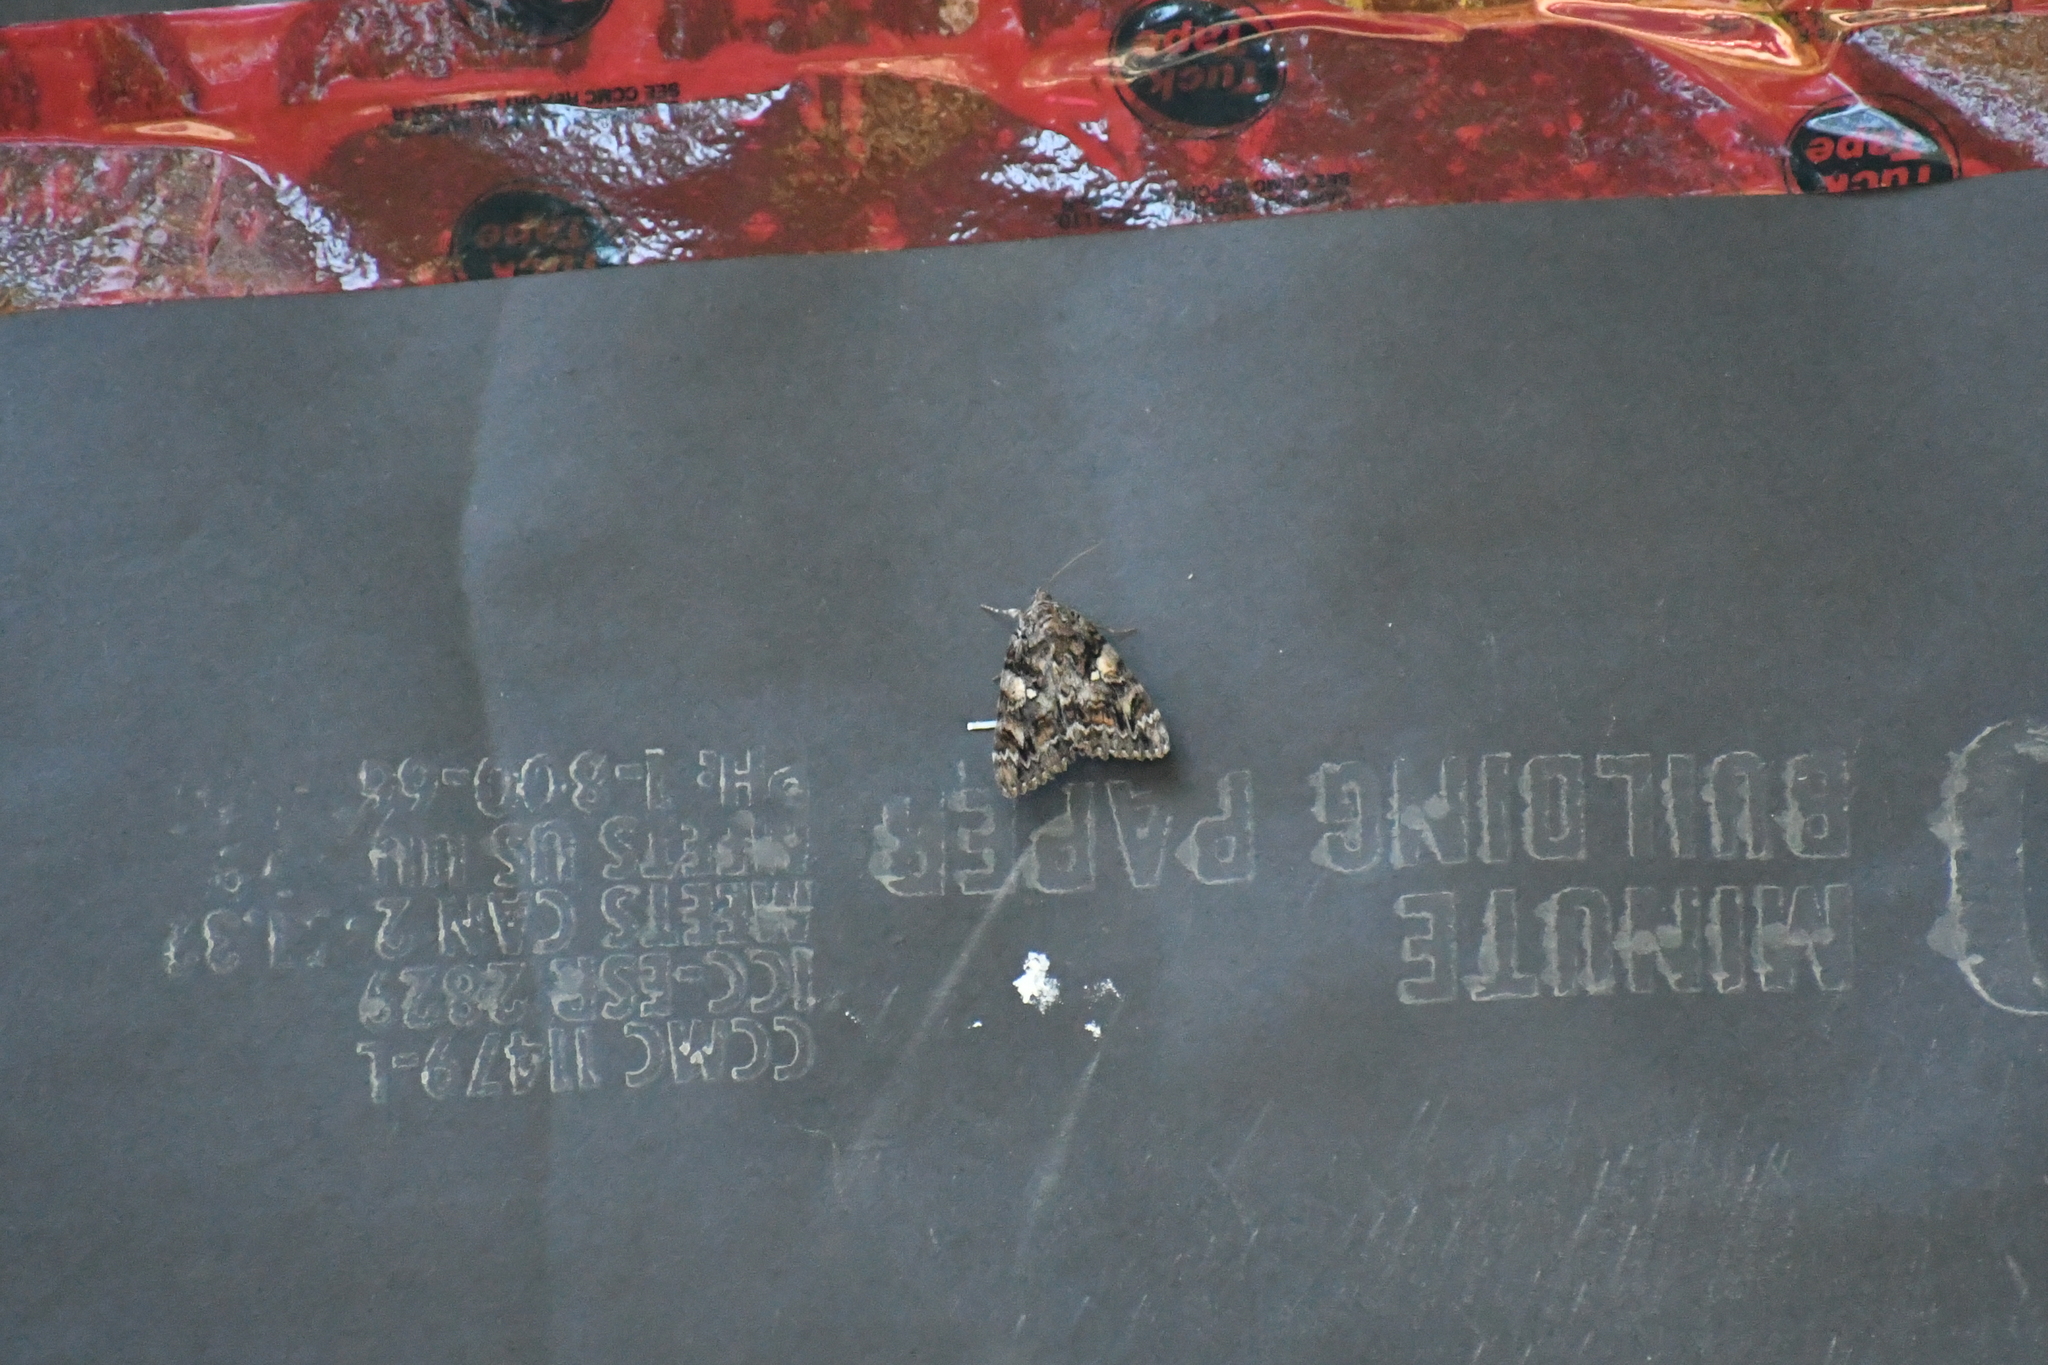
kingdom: Animalia
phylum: Arthropoda
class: Insecta
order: Lepidoptera
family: Erebidae
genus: Catocala
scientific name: Catocala aholibah
